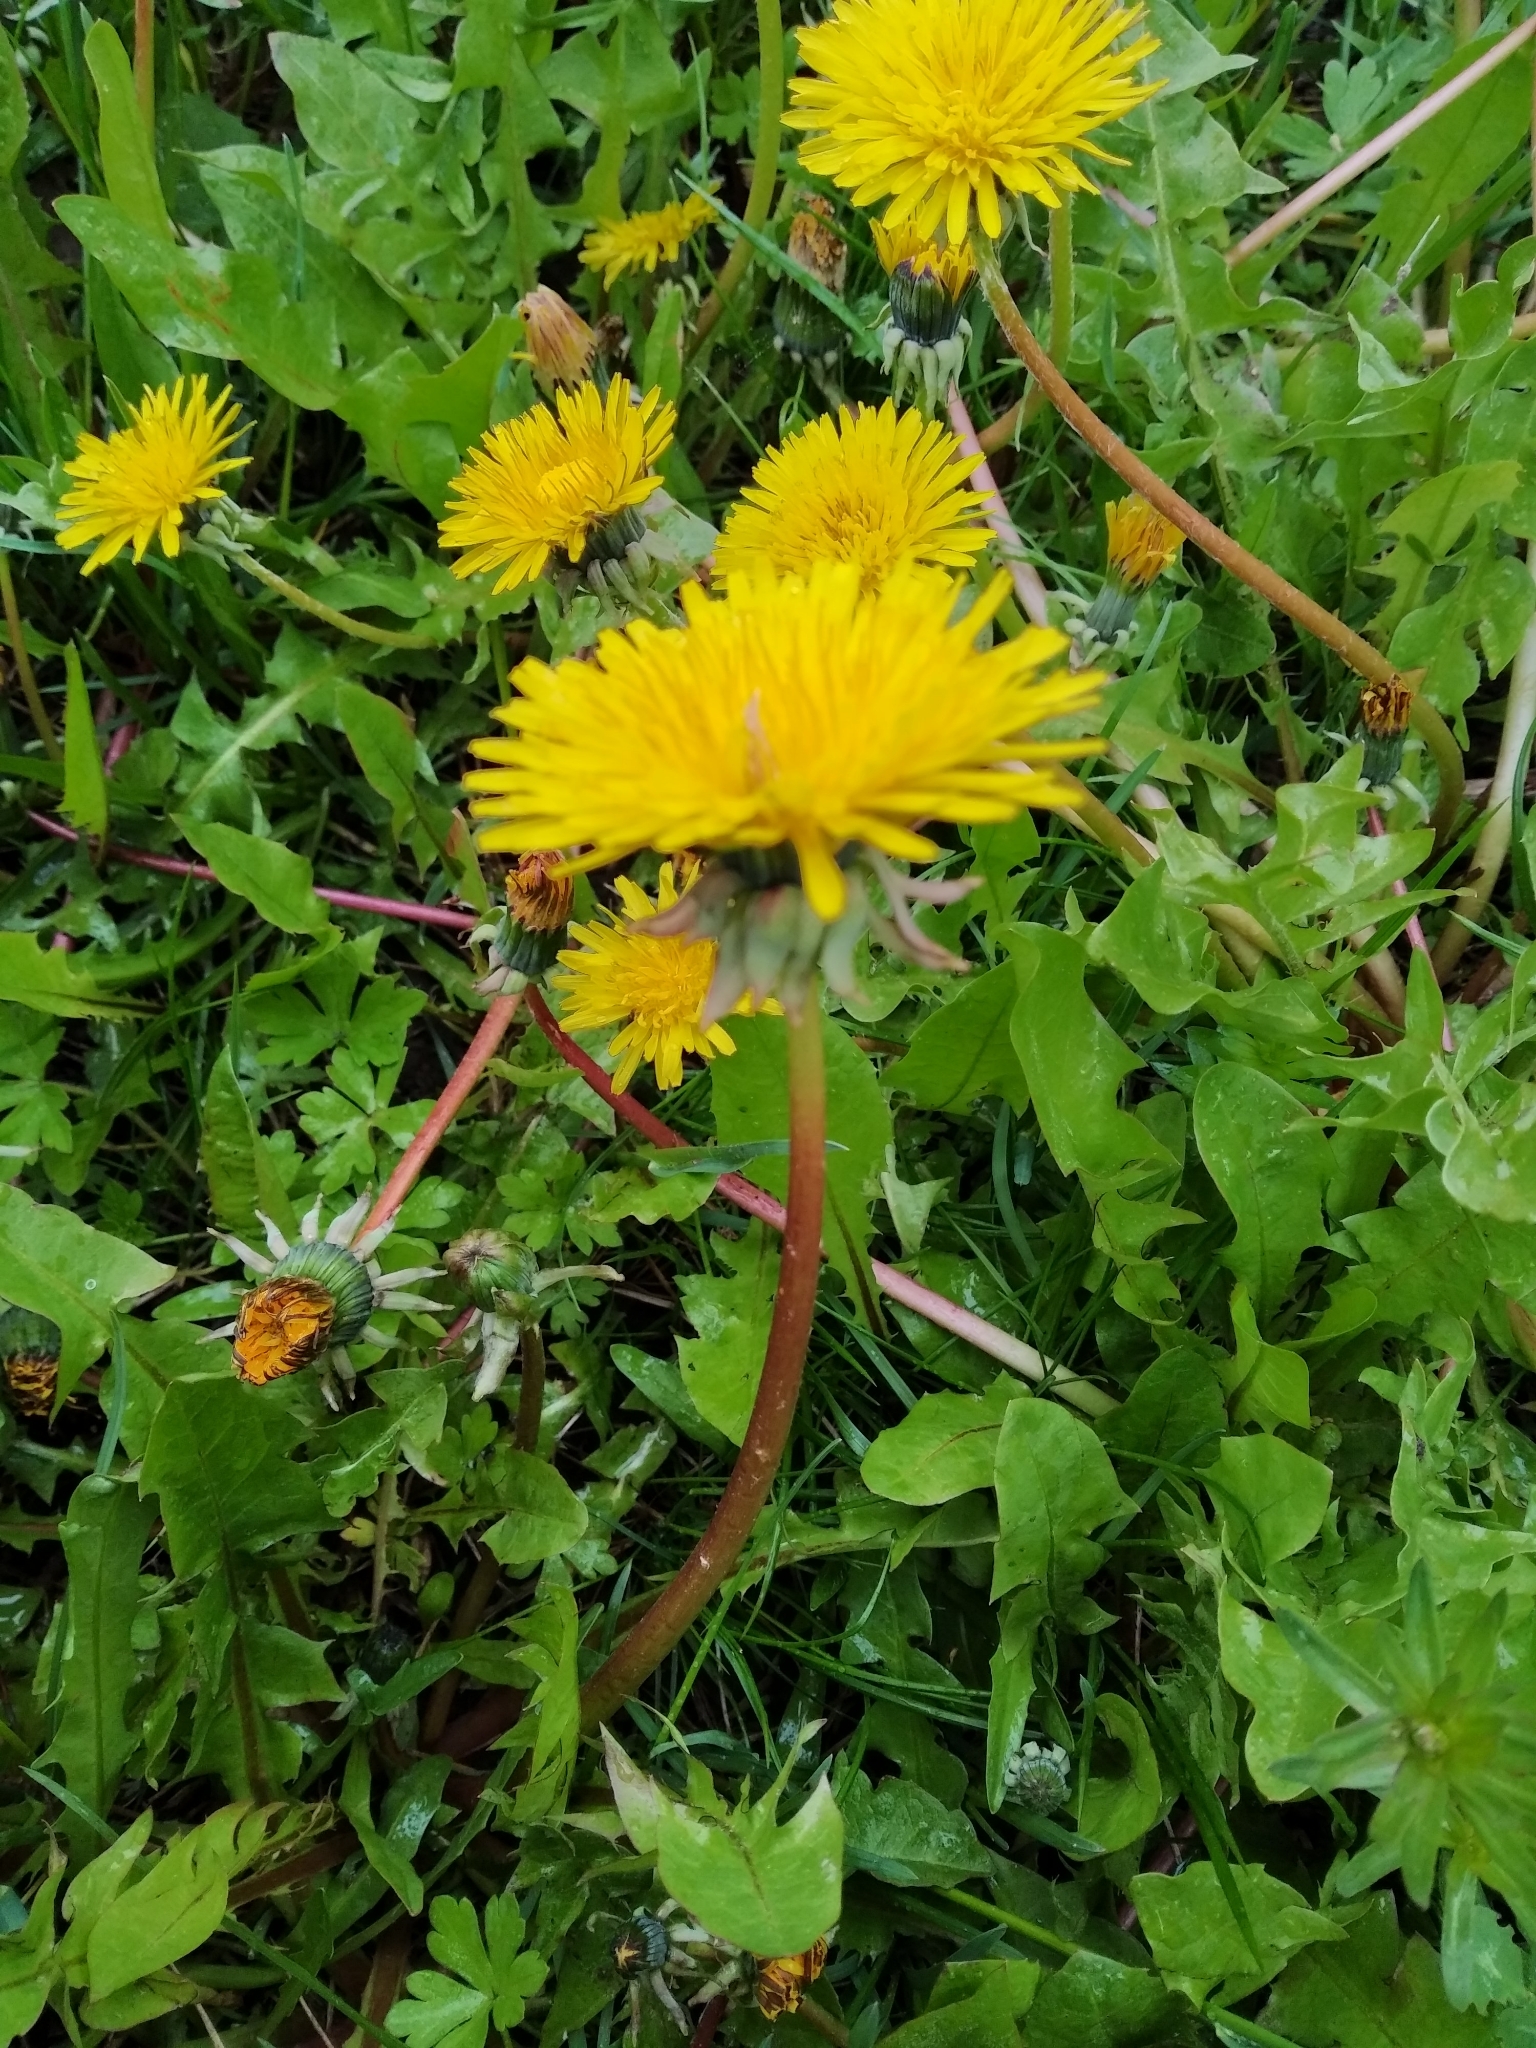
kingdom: Plantae
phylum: Tracheophyta
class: Magnoliopsida
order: Asterales
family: Asteraceae
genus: Taraxacum
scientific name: Taraxacum officinale
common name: Common dandelion
